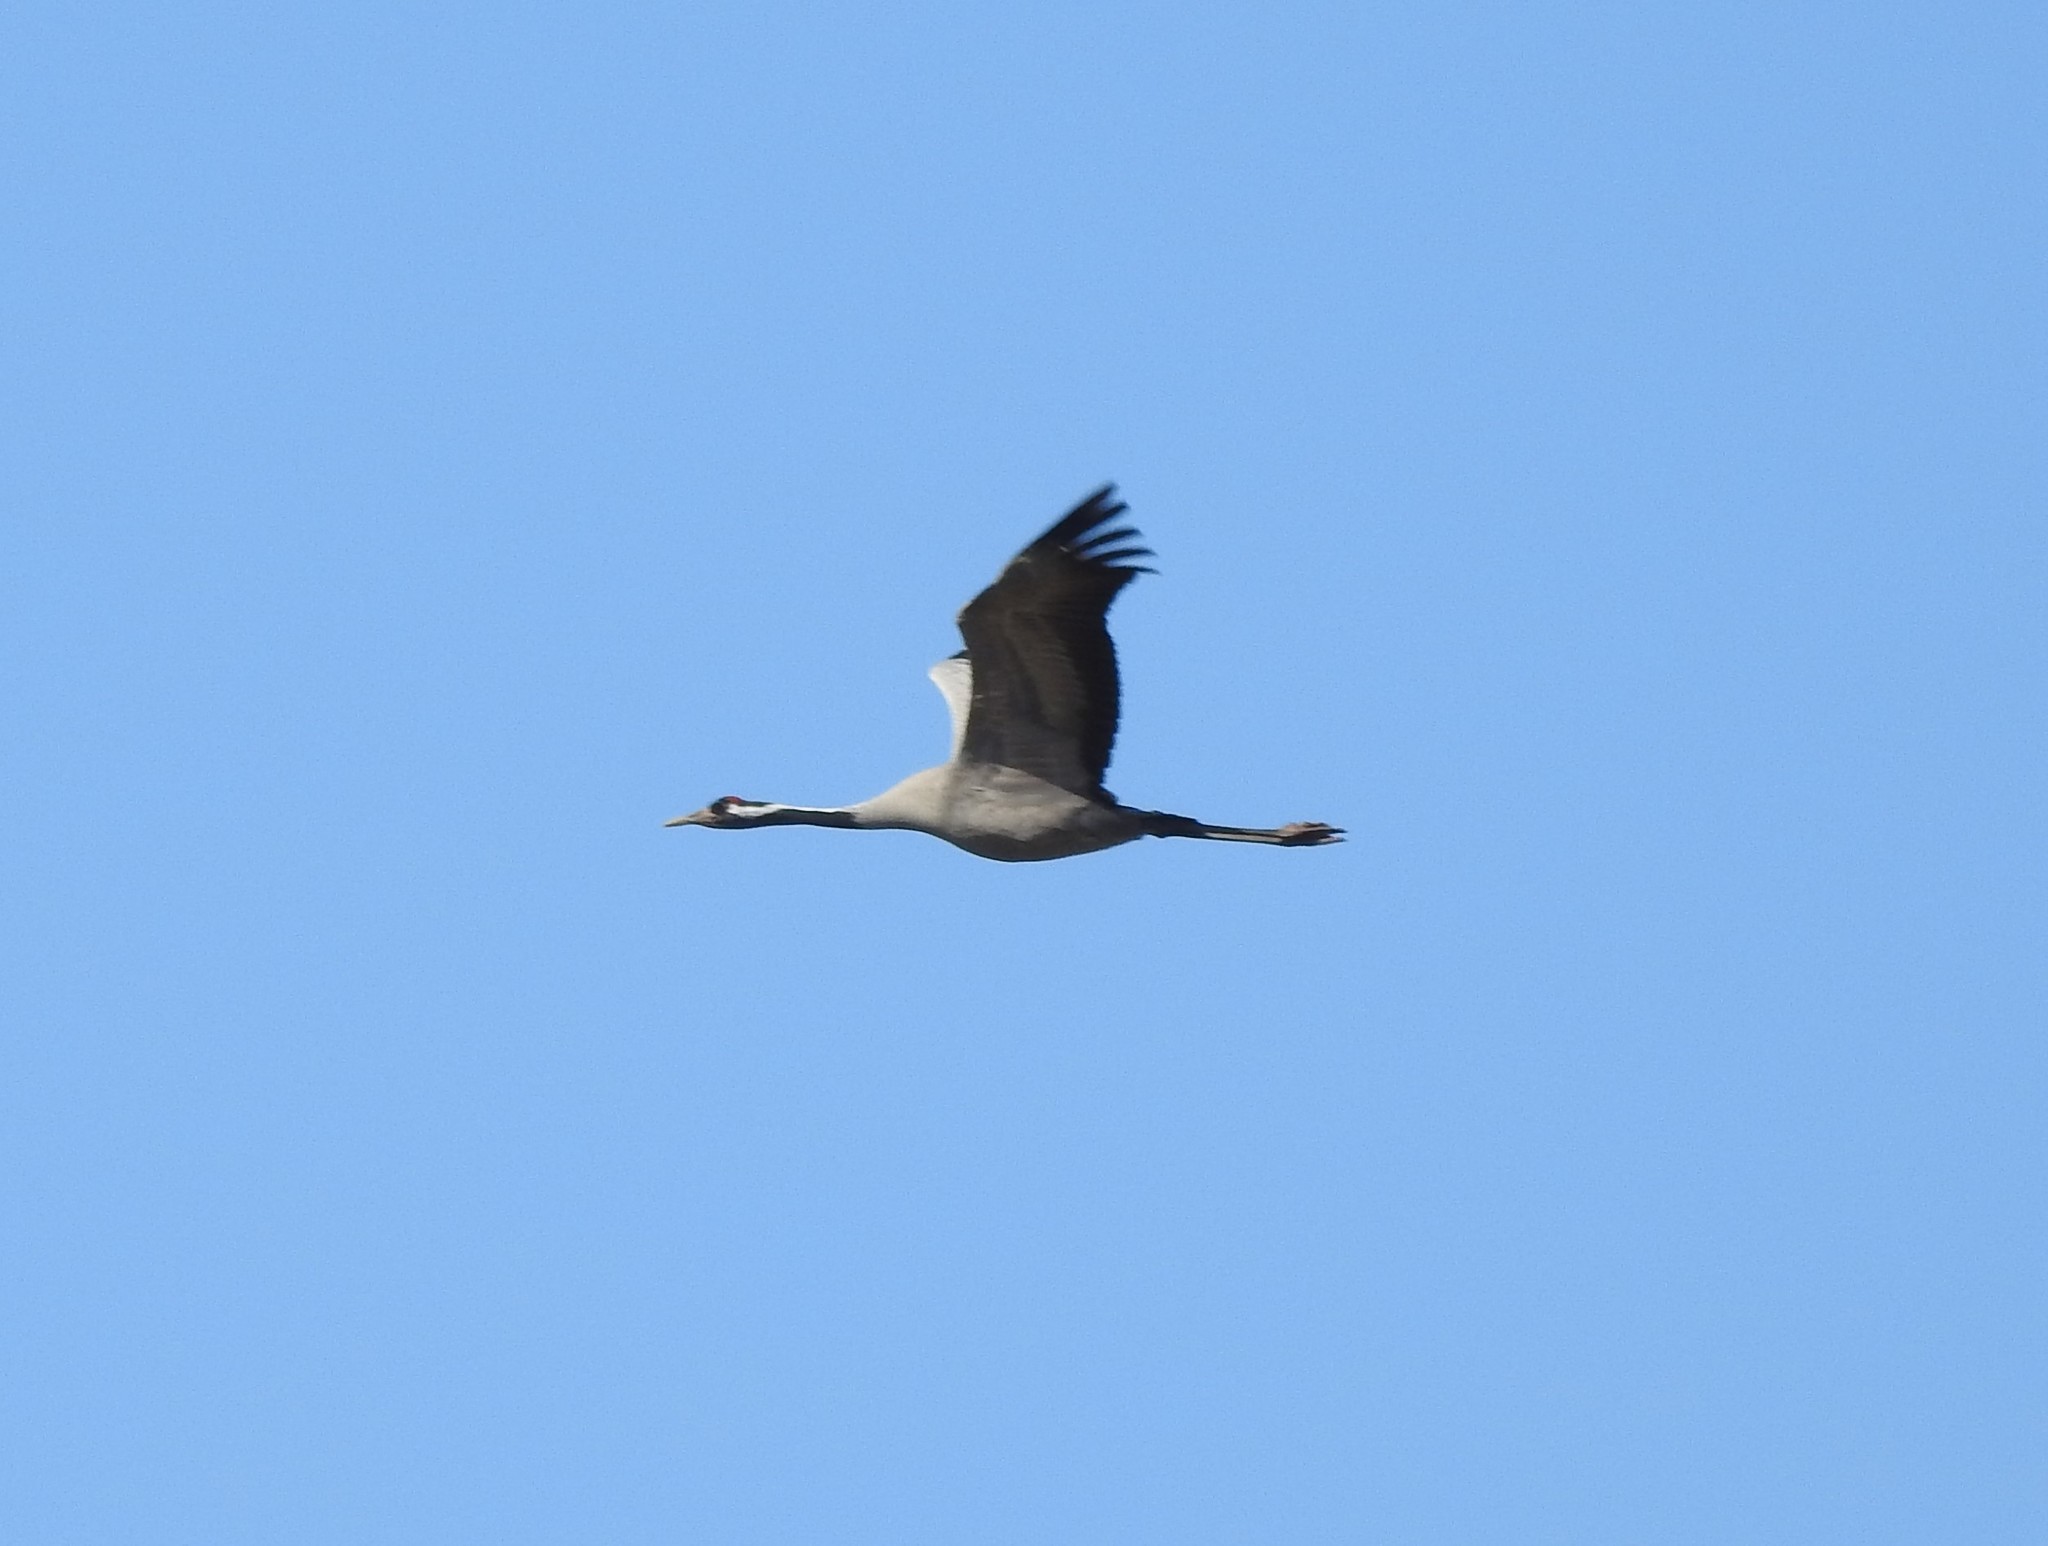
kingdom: Animalia
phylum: Chordata
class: Aves
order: Gruiformes
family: Gruidae
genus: Grus
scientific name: Grus grus
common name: Common crane
